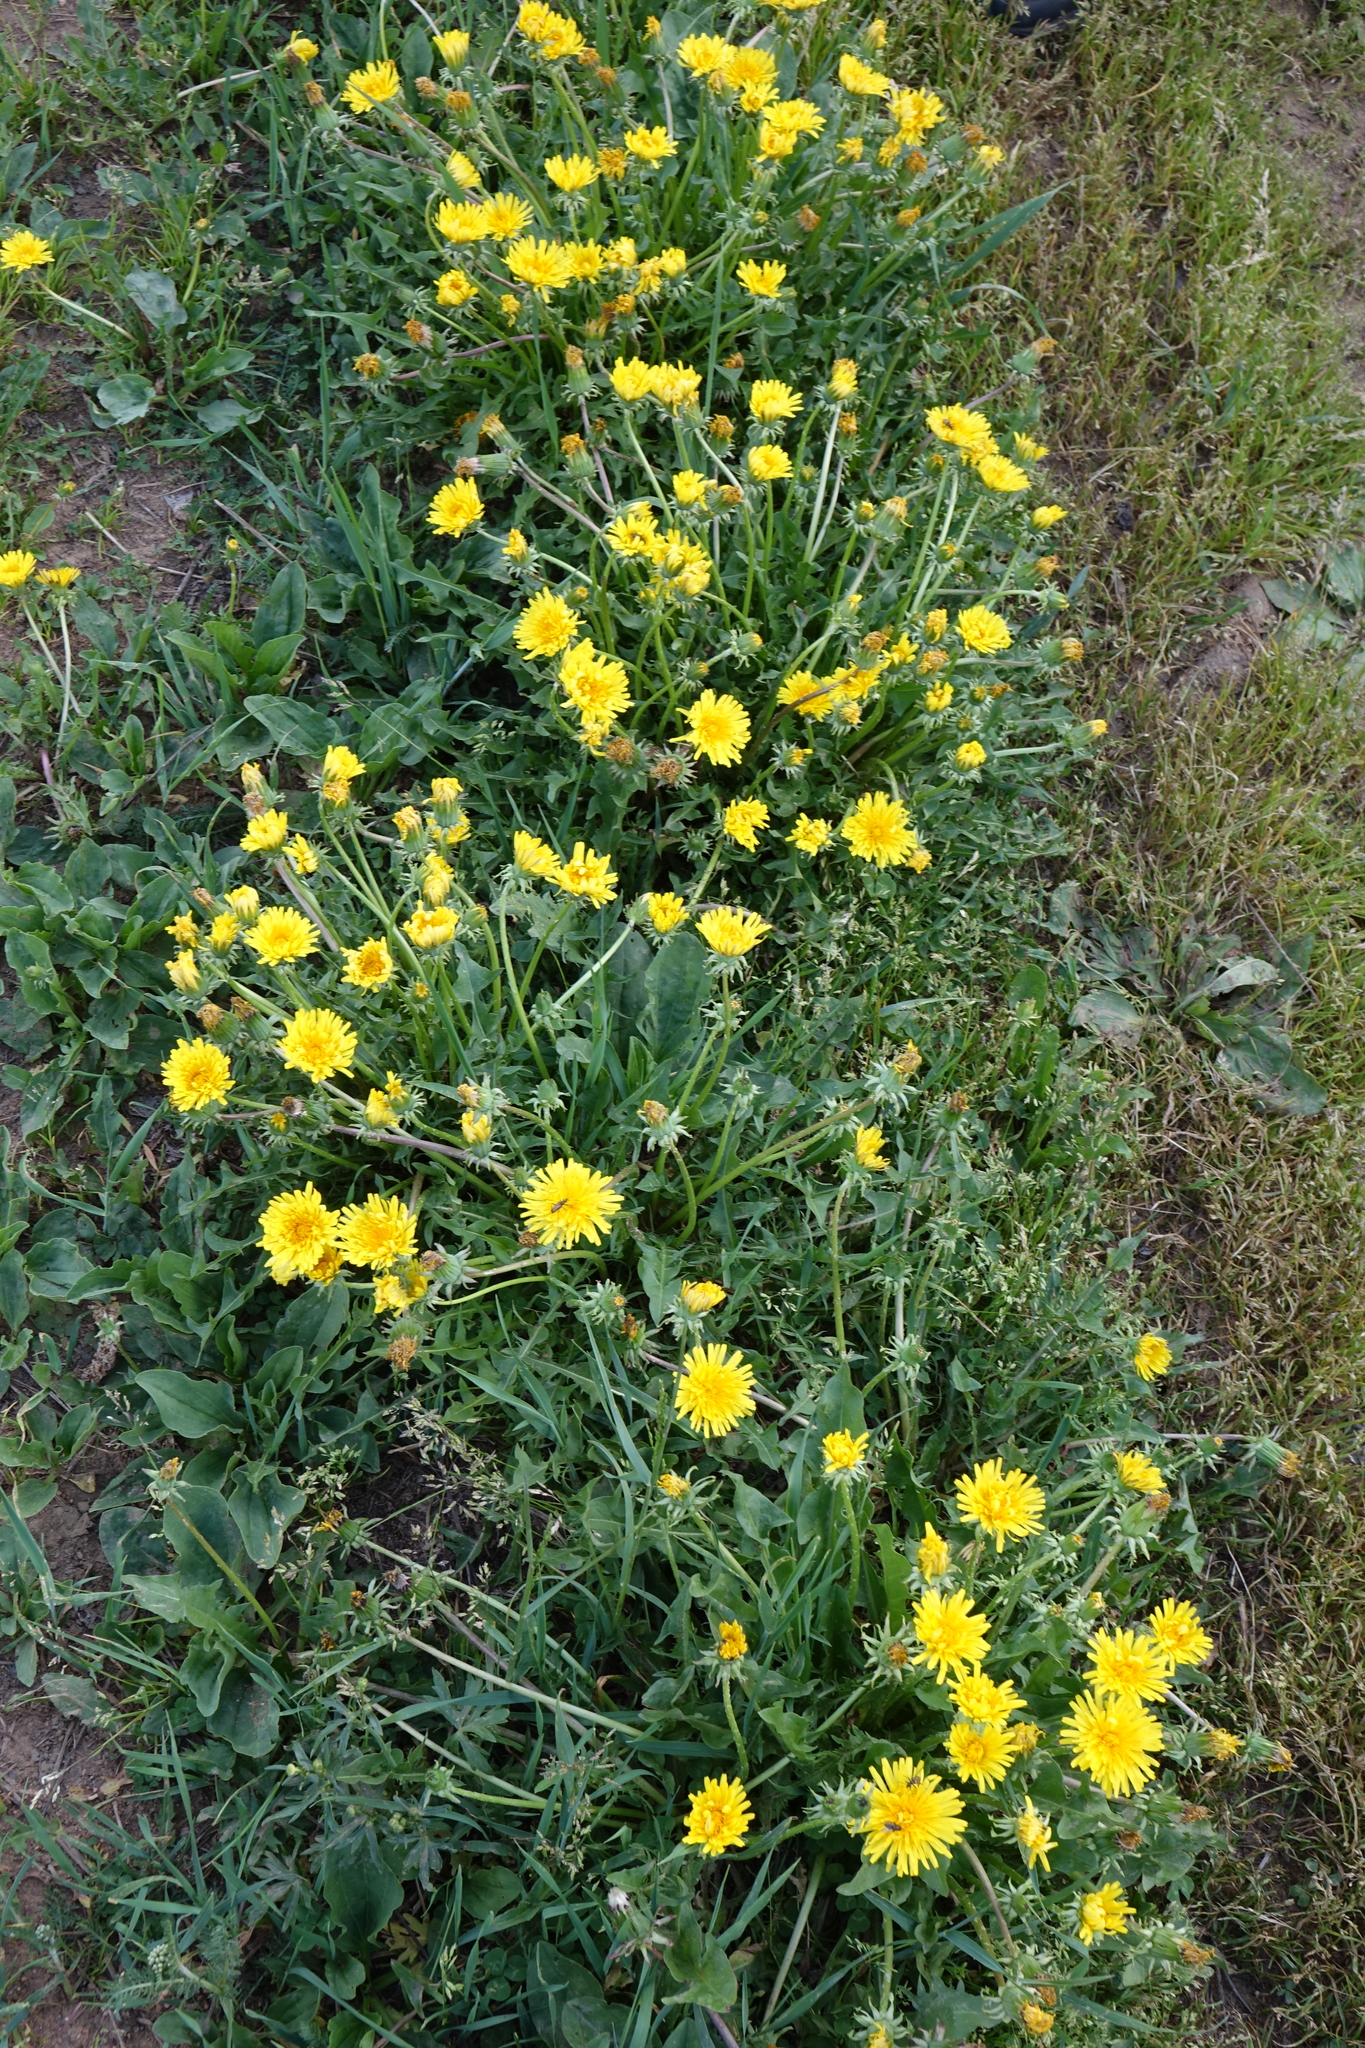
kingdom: Plantae
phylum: Tracheophyta
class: Magnoliopsida
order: Asterales
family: Asteraceae
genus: Taraxacum
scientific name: Taraxacum officinale
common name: Common dandelion
